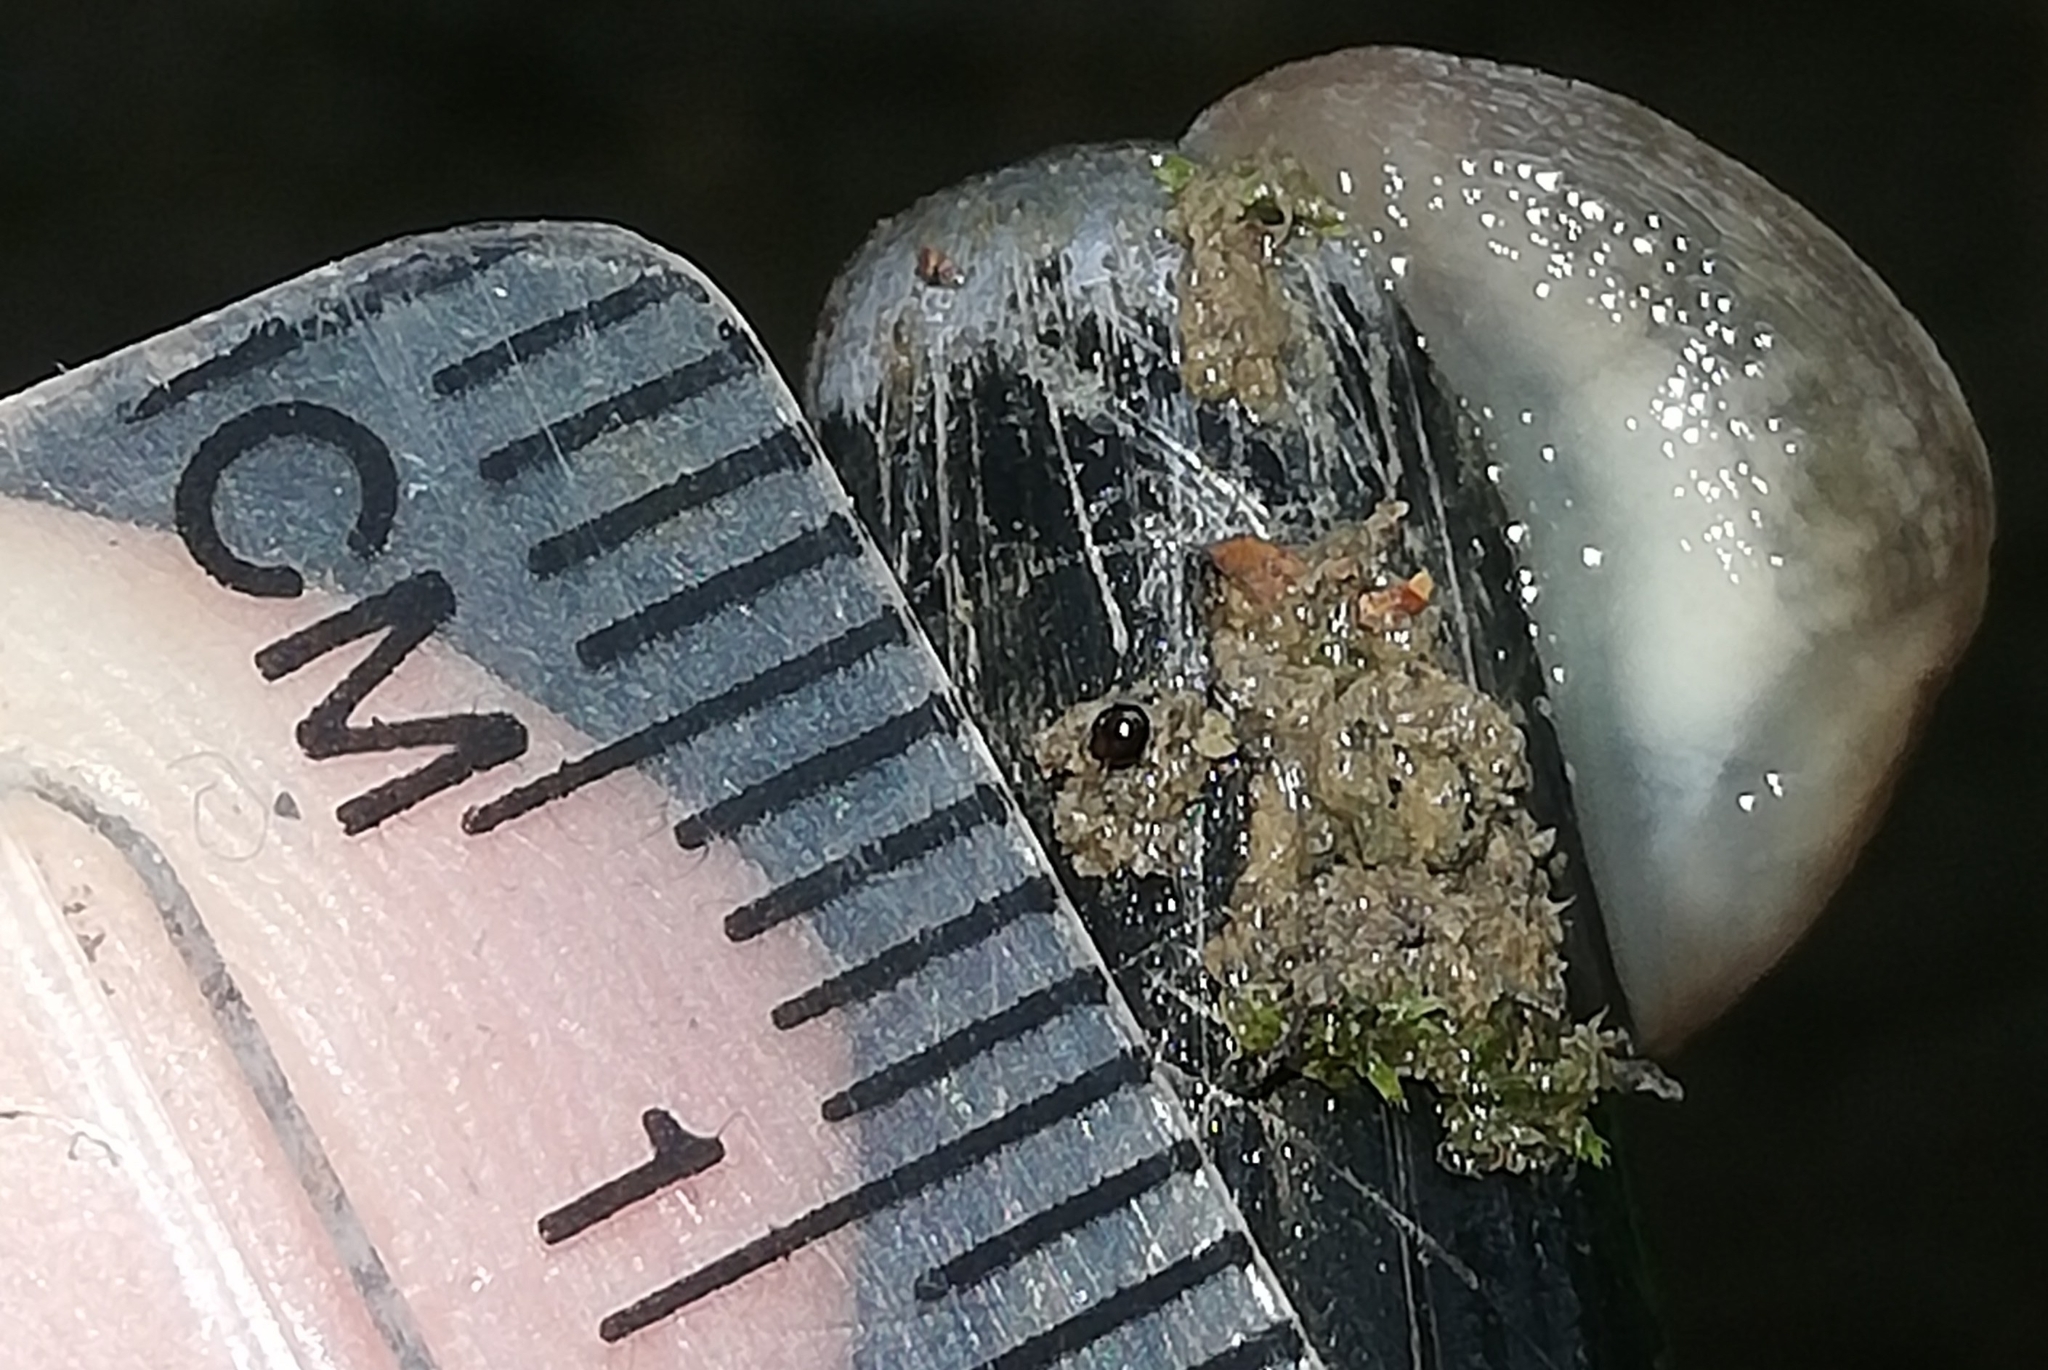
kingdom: Animalia
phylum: Mollusca
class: Gastropoda
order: Stylommatophora
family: Limacidae
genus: Lehmannia
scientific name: Lehmannia marginata
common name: Tree slug
